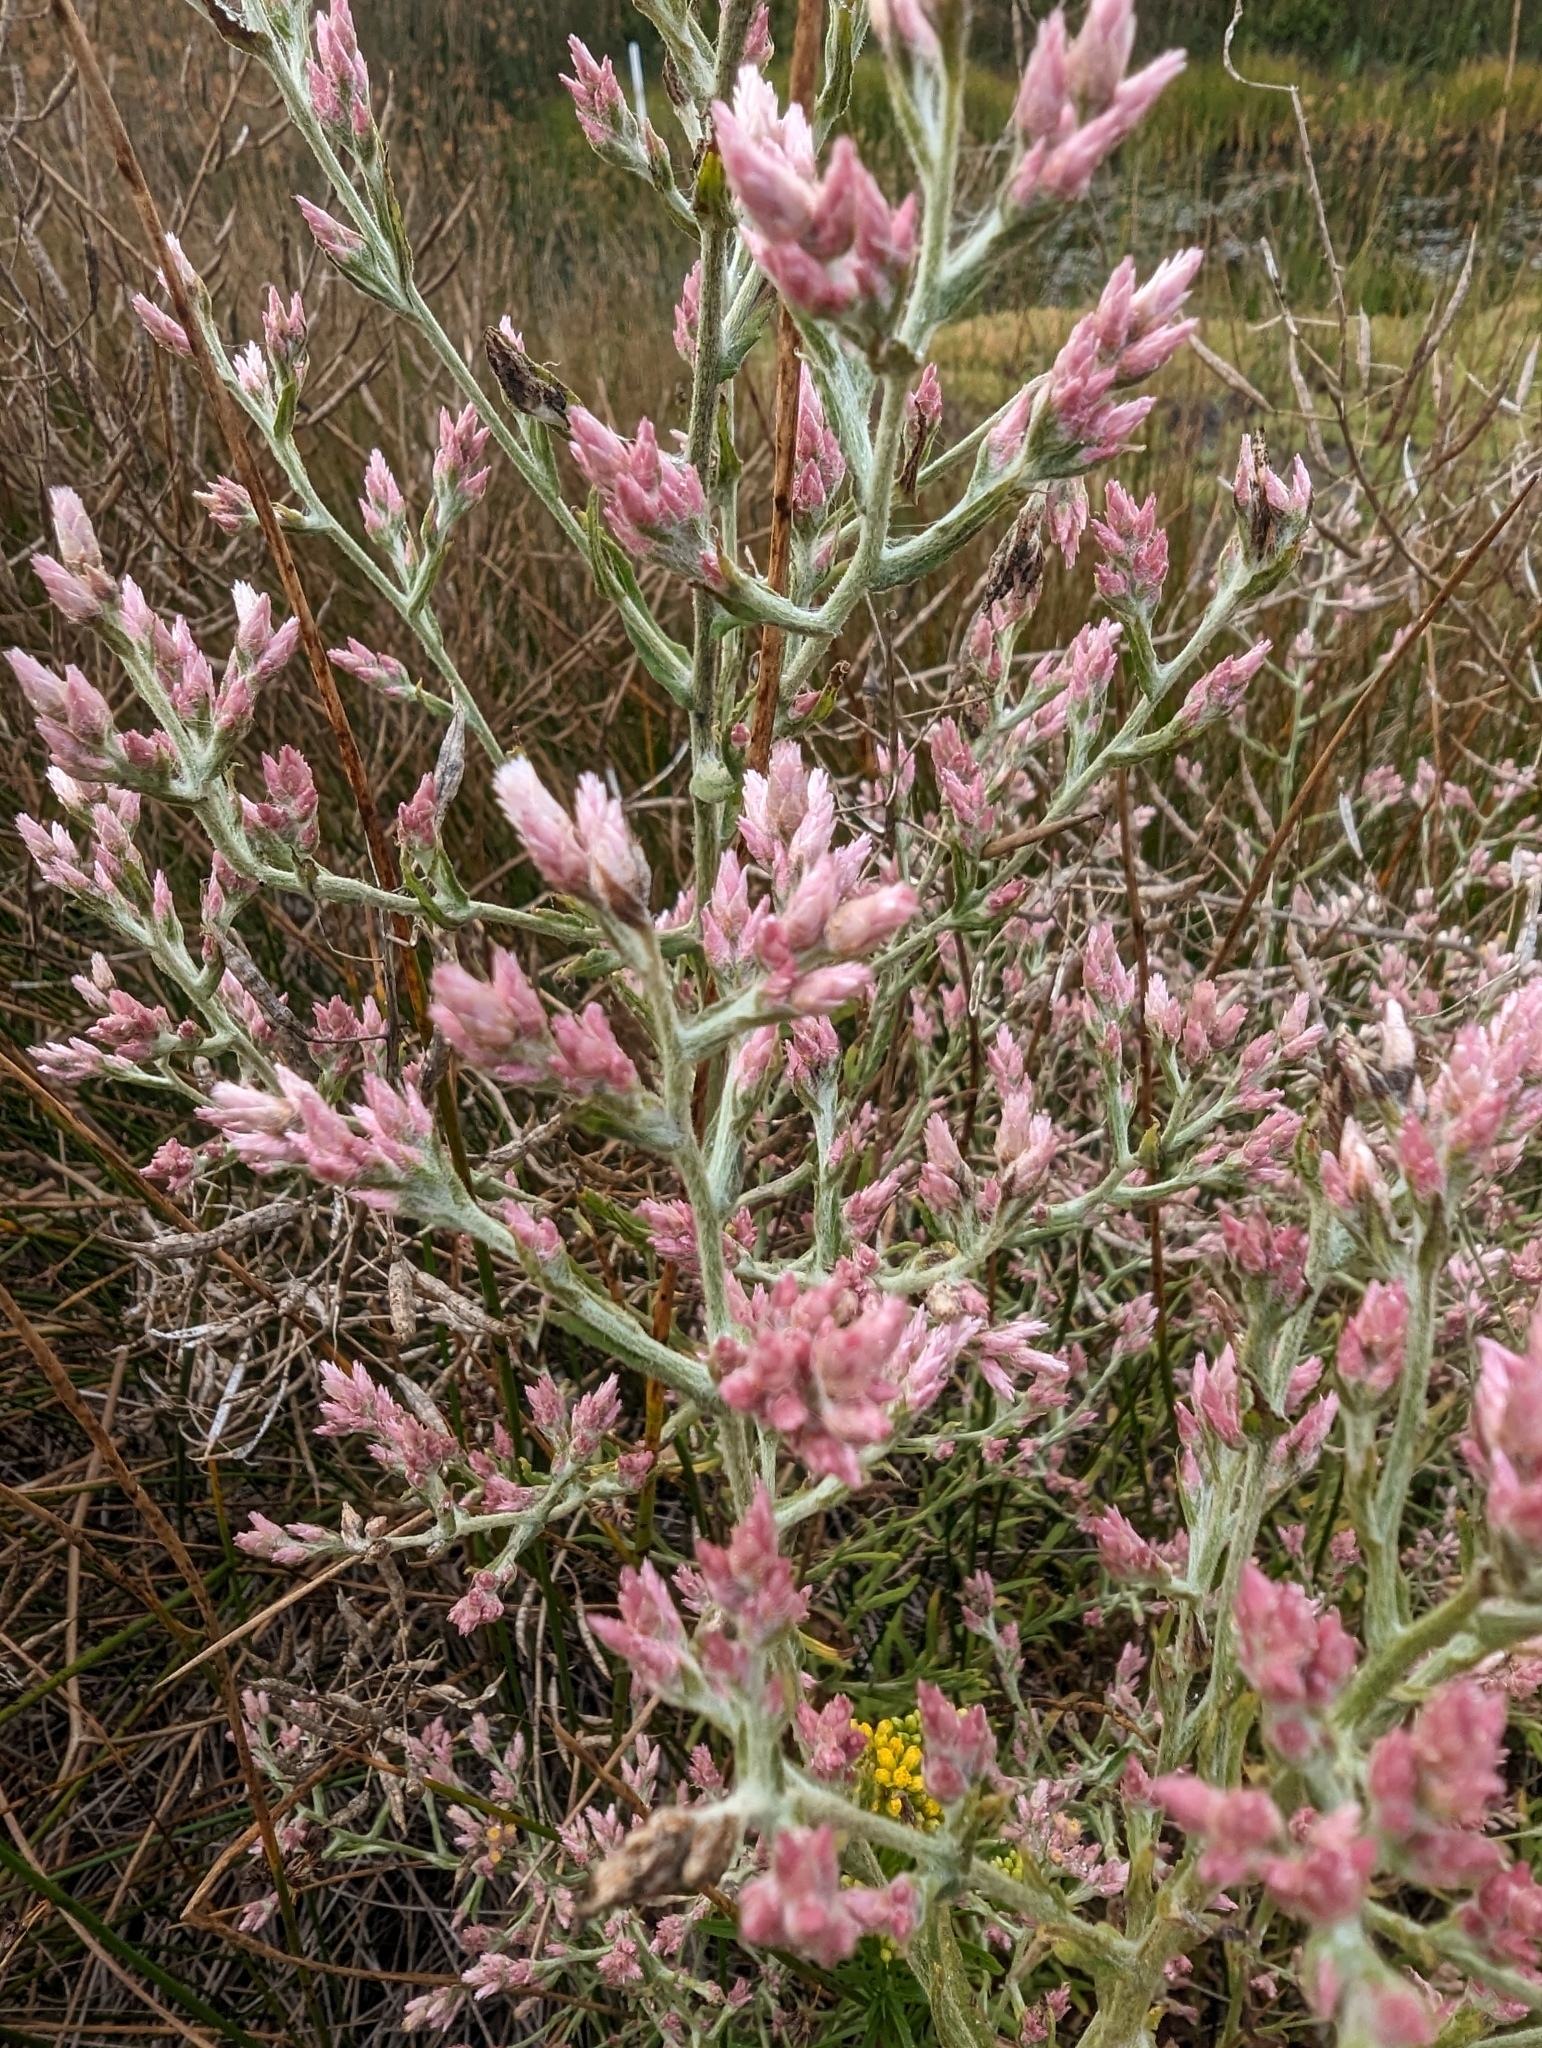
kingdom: Plantae
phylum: Tracheophyta
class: Magnoliopsida
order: Asterales
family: Asteraceae
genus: Pseudognaphalium
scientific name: Pseudognaphalium ramosissimum
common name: Pink rabbit-tobacco
